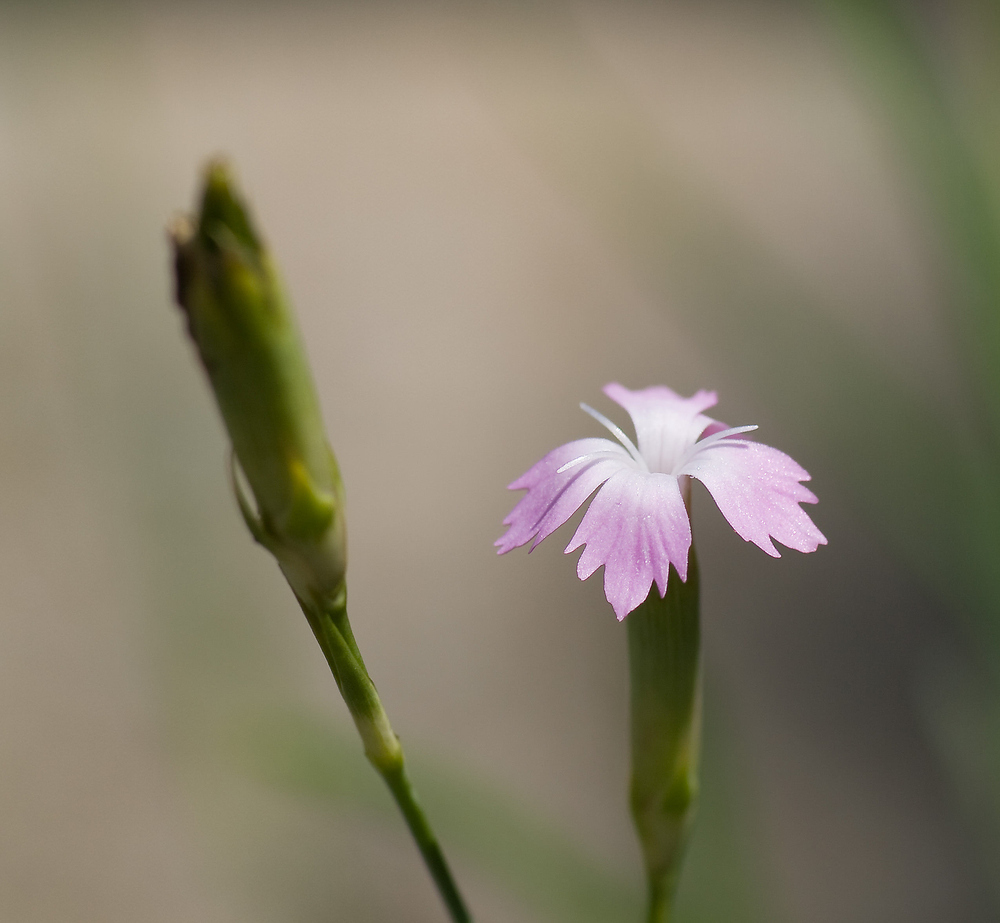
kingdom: Plantae
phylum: Tracheophyta
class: Magnoliopsida
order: Caryophyllales
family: Caryophyllaceae
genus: Dianthus
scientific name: Dianthus benearnensis
